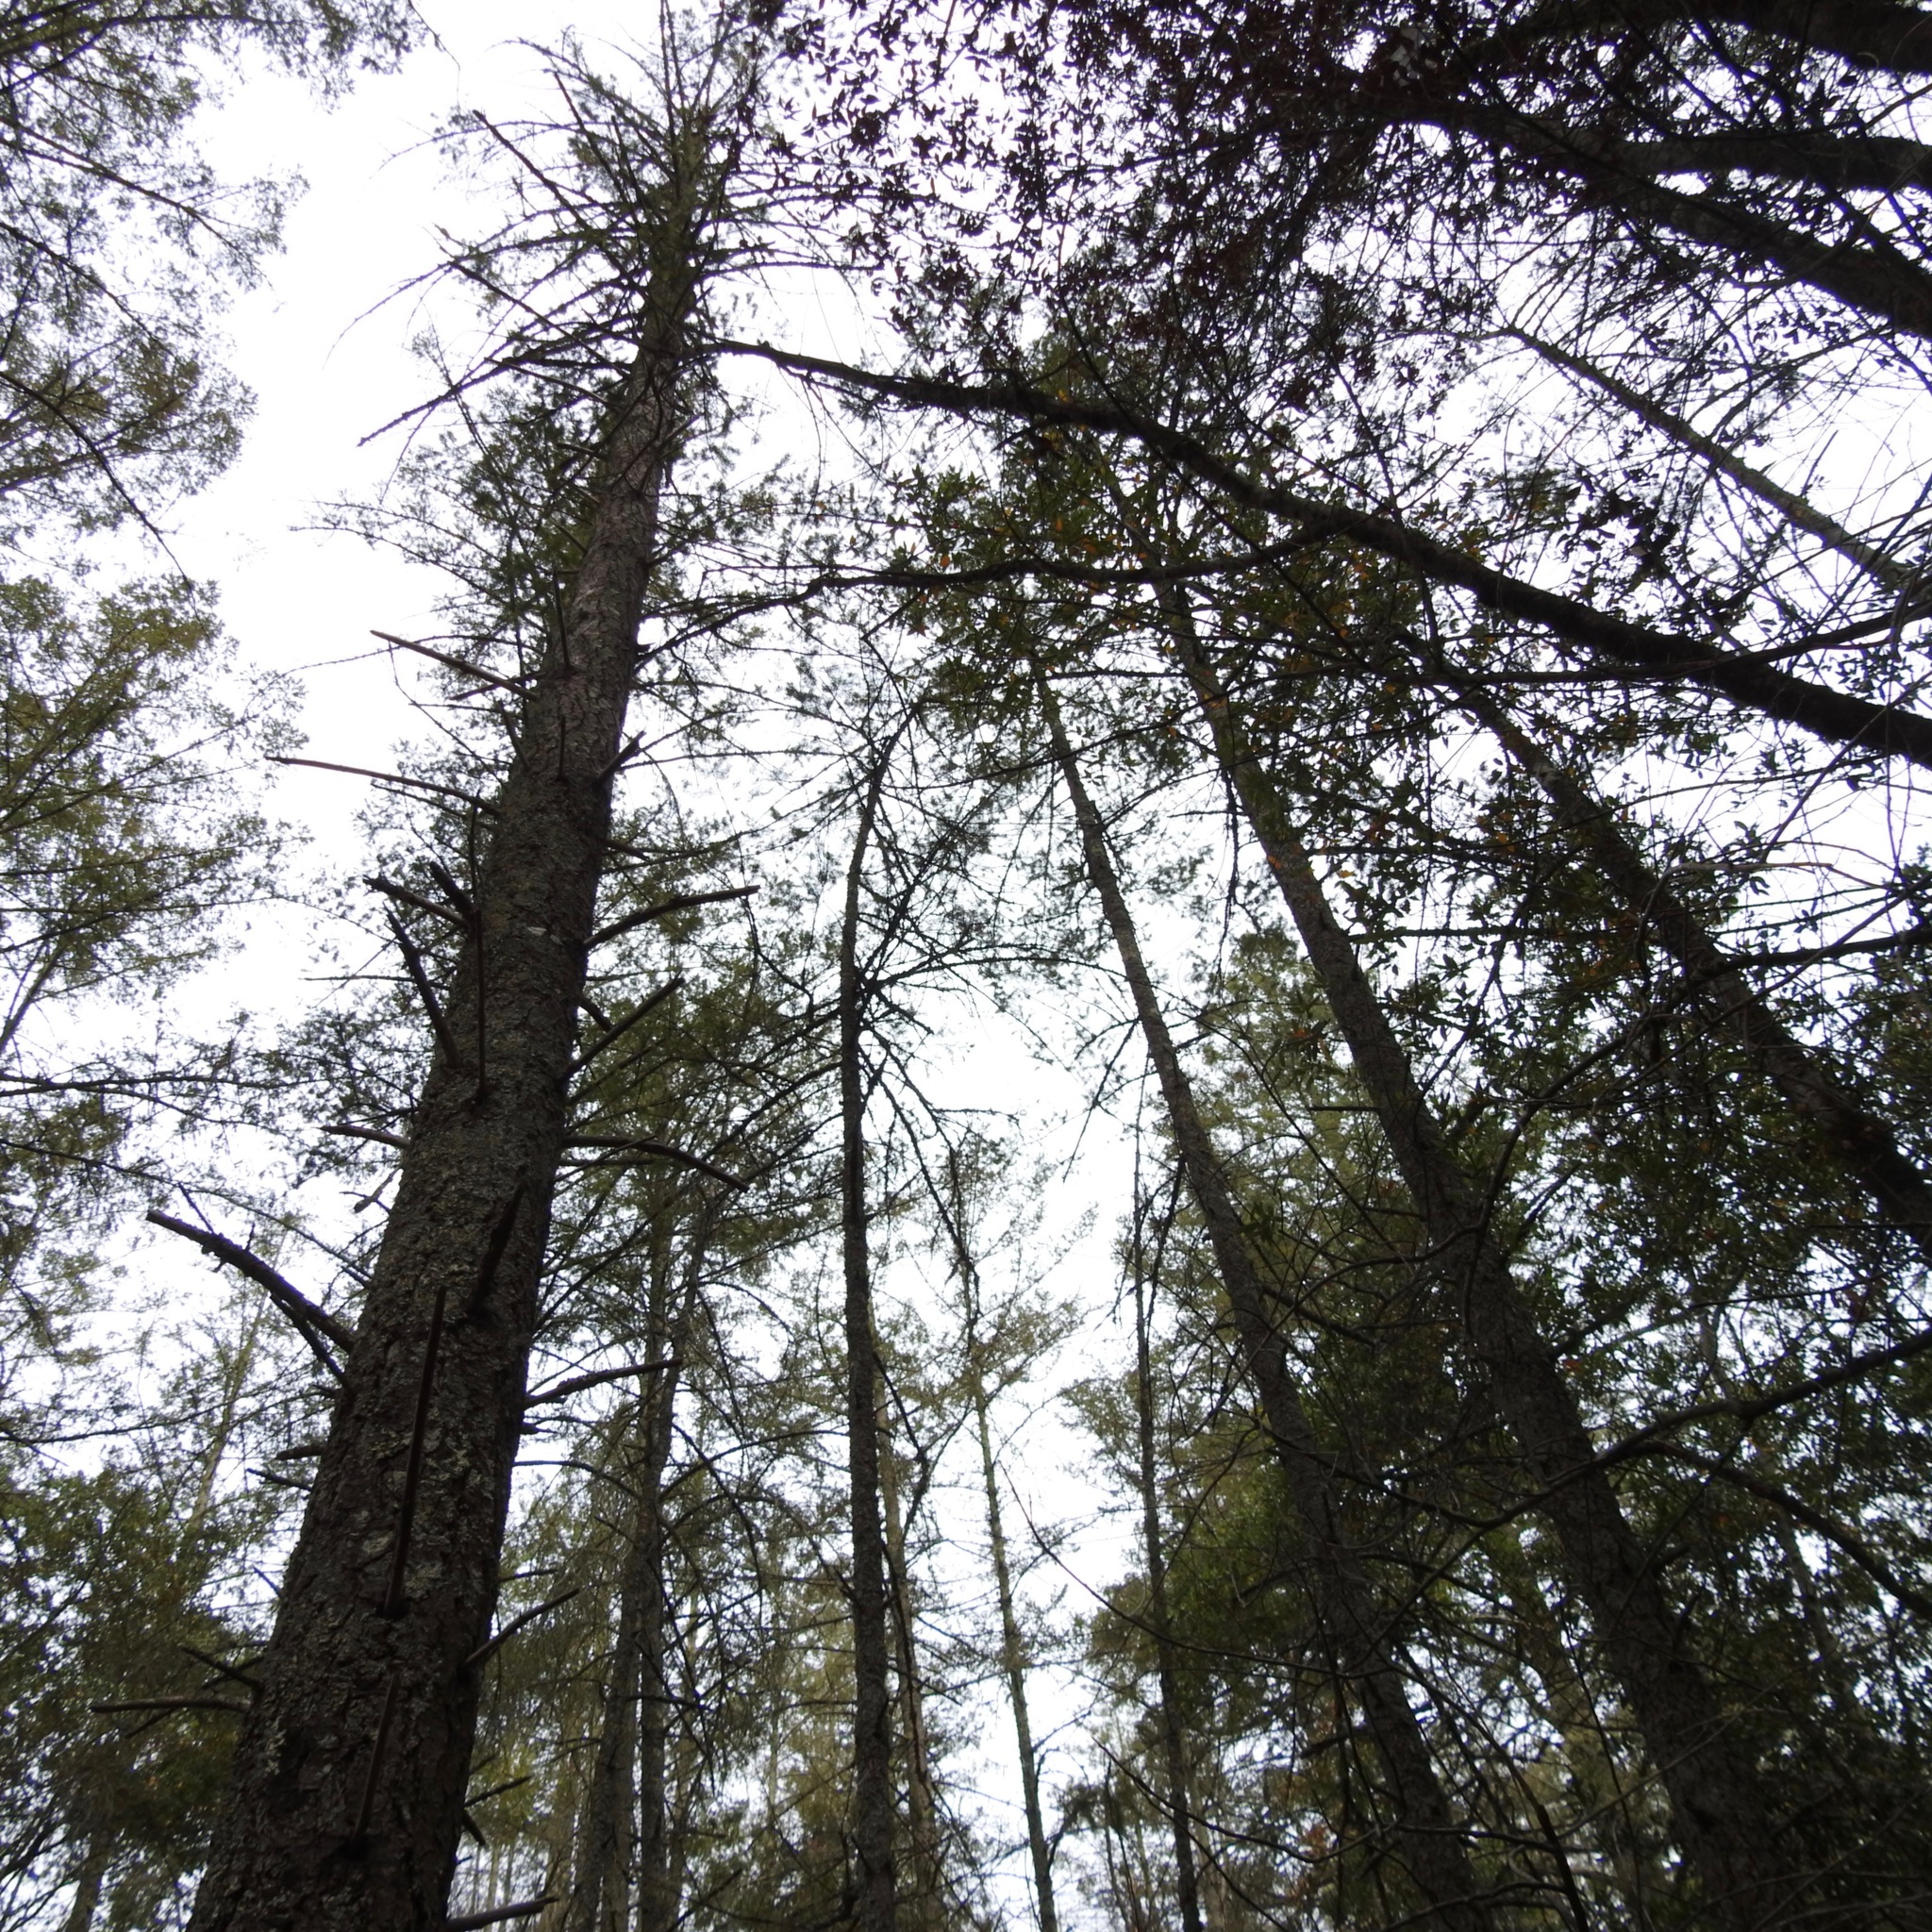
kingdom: Plantae
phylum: Tracheophyta
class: Pinopsida
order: Pinales
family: Pinaceae
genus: Pseudotsuga
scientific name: Pseudotsuga menziesii
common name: Douglas fir
